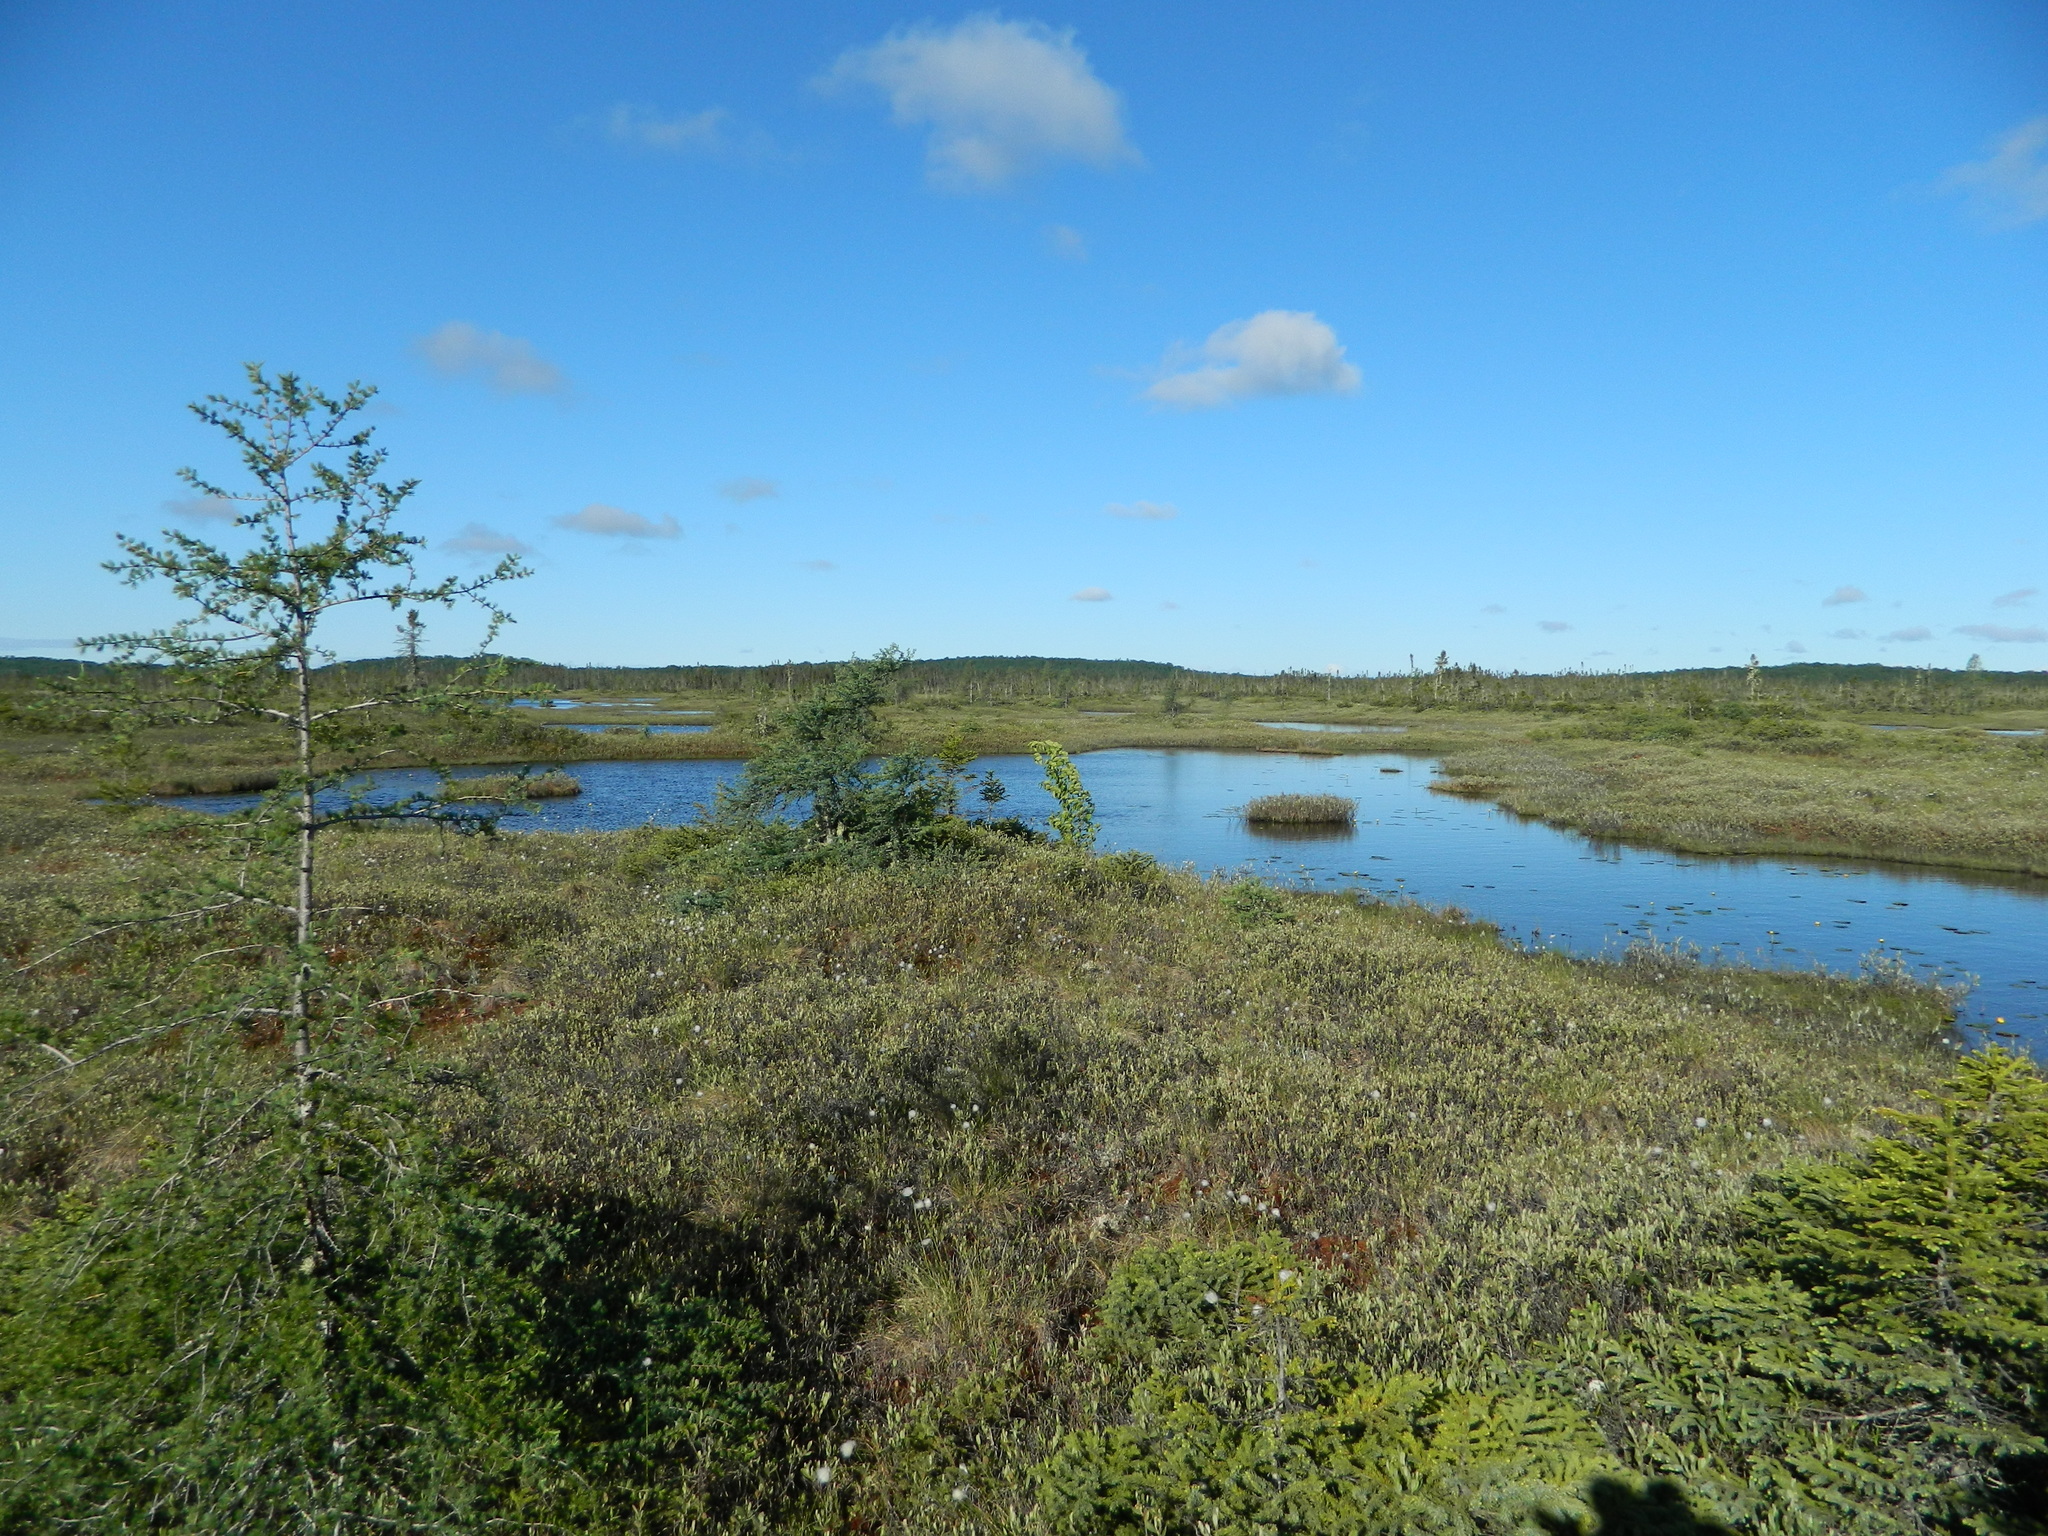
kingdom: Plantae
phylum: Tracheophyta
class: Pinopsida
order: Pinales
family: Pinaceae
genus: Larix
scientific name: Larix laricina
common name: American larch
